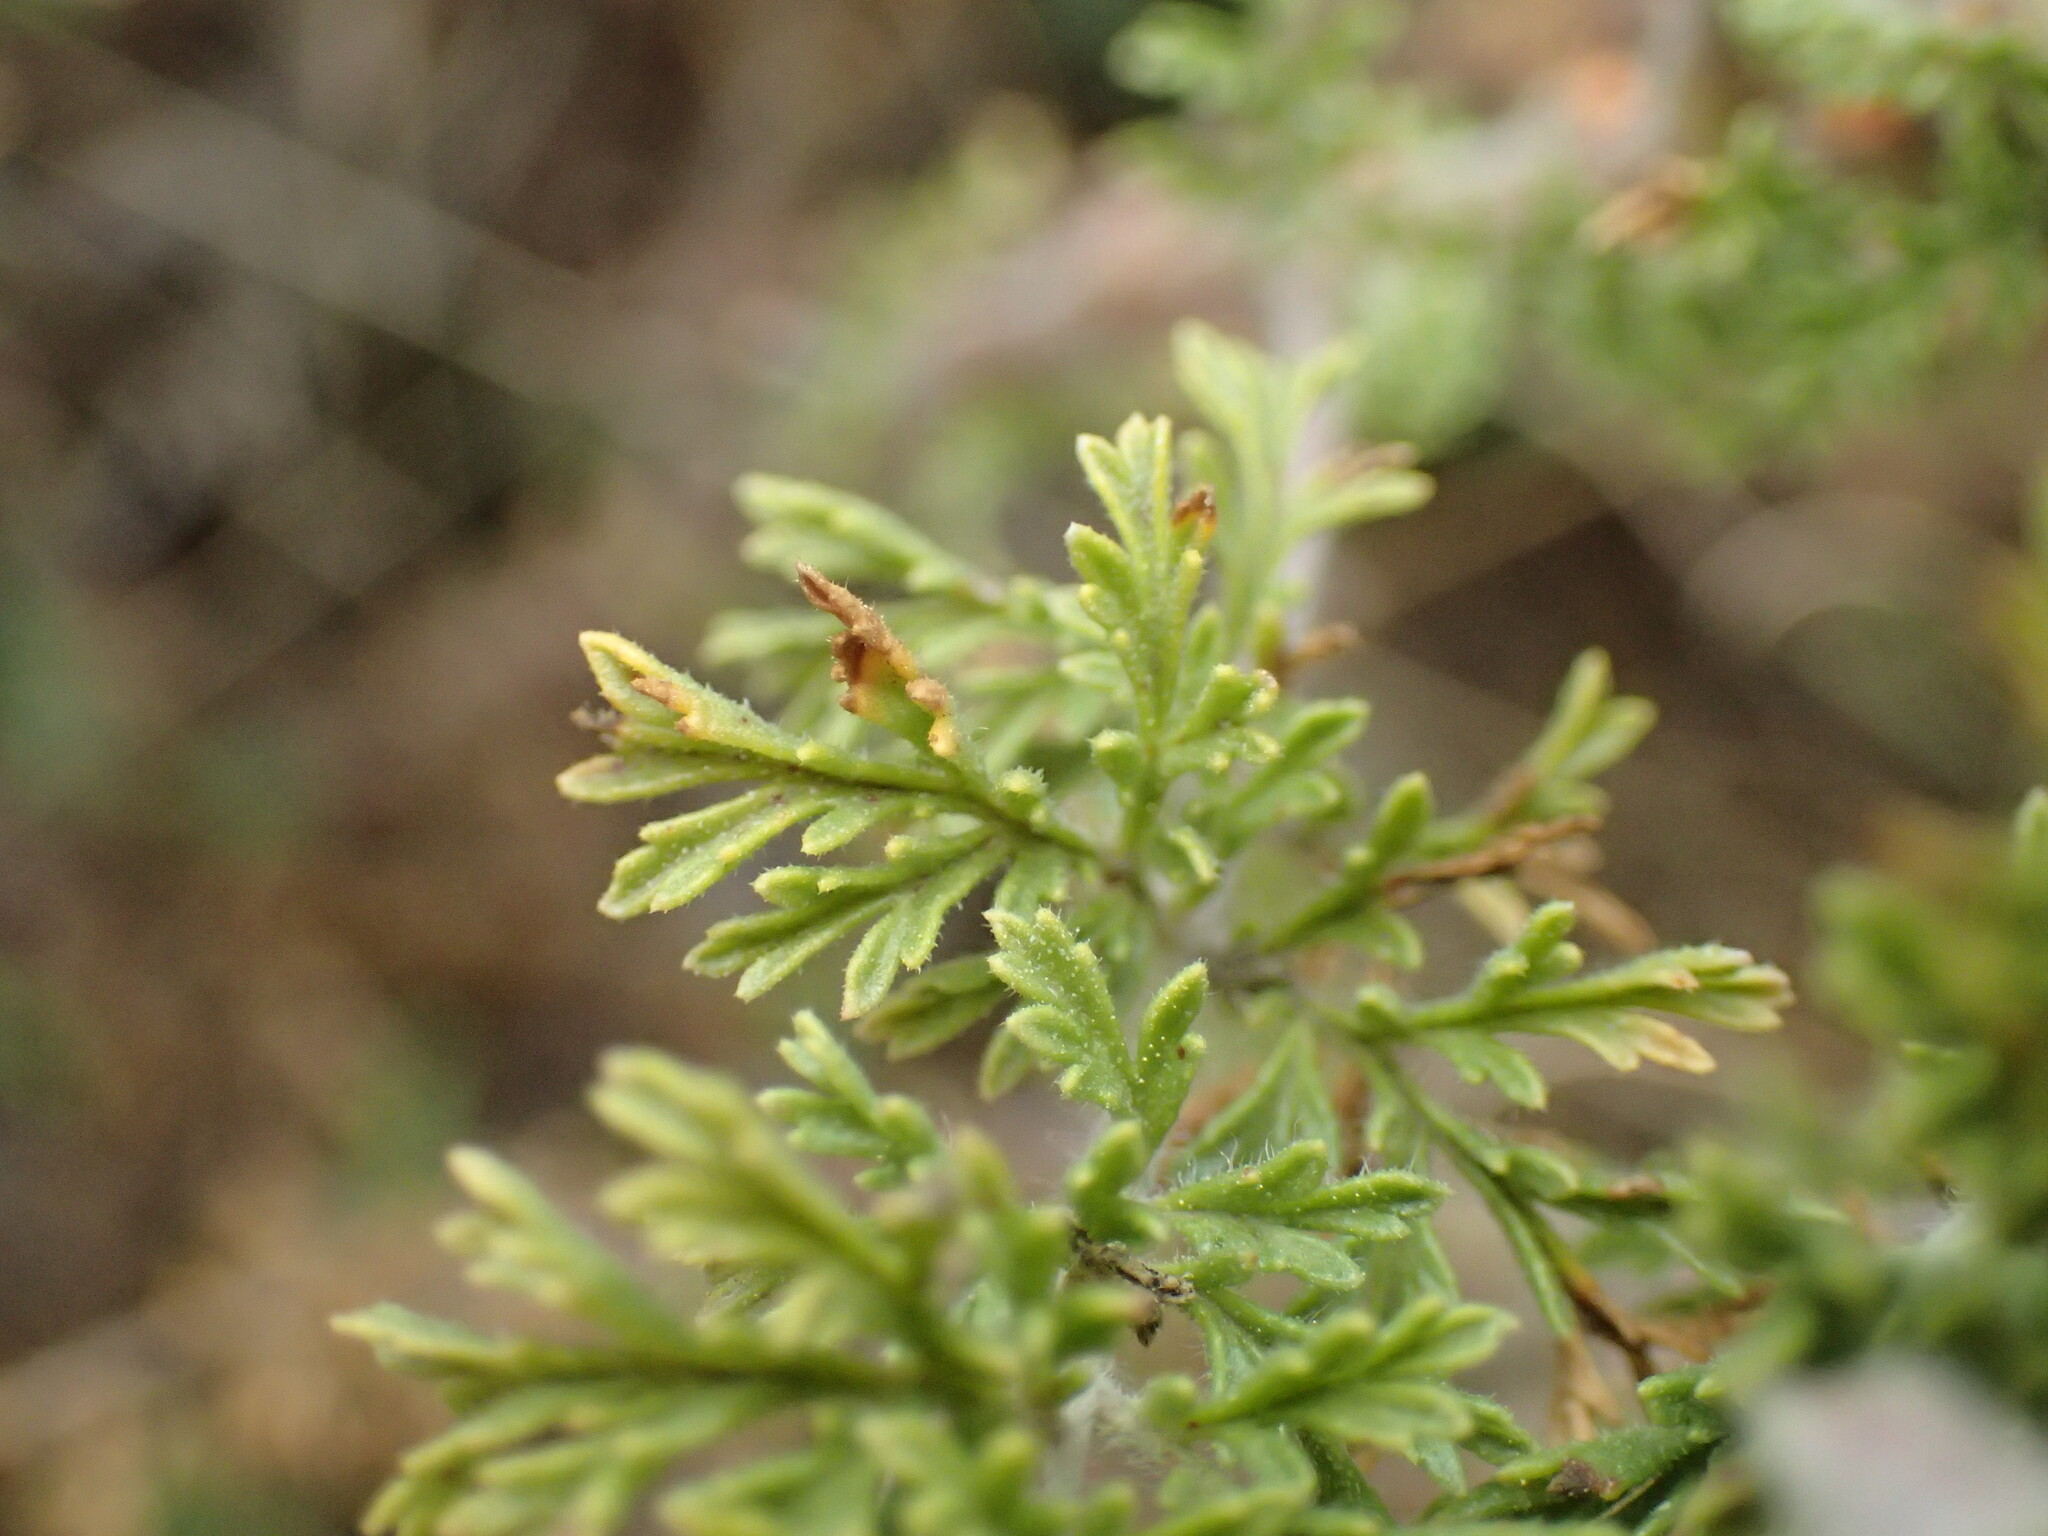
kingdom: Plantae
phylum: Tracheophyta
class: Magnoliopsida
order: Geraniales
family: Geraniaceae
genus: Pelargonium
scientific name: Pelargonium tragacanthoides
